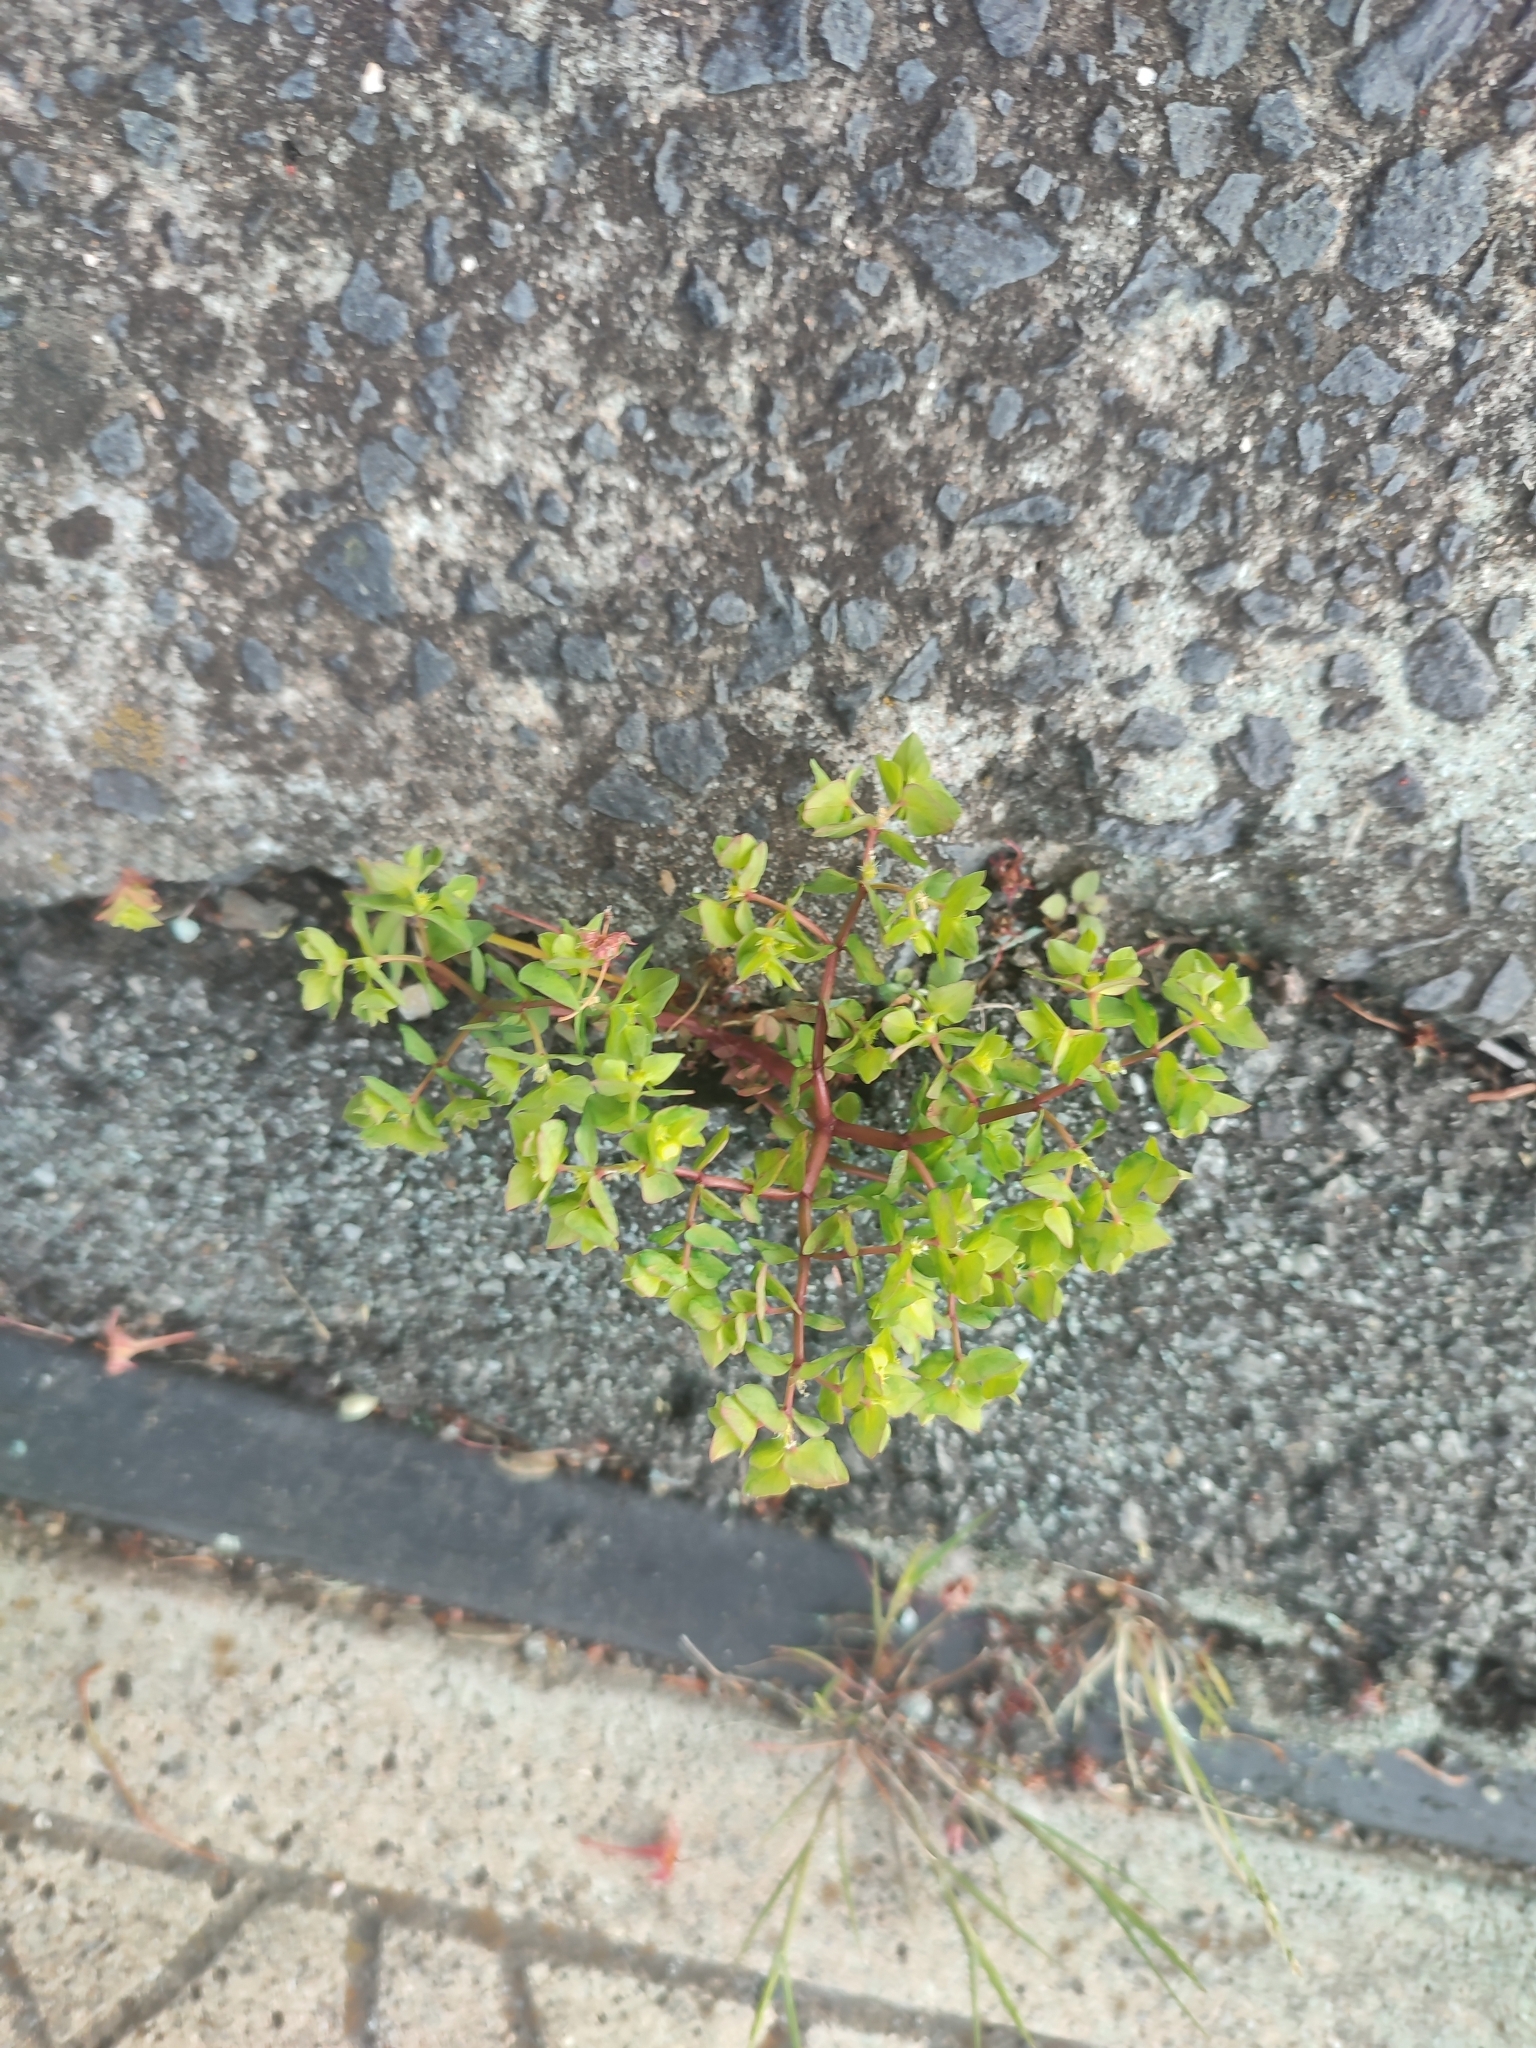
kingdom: Plantae
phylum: Tracheophyta
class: Magnoliopsida
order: Malpighiales
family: Euphorbiaceae
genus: Euphorbia
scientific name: Euphorbia peplus
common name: Petty spurge
